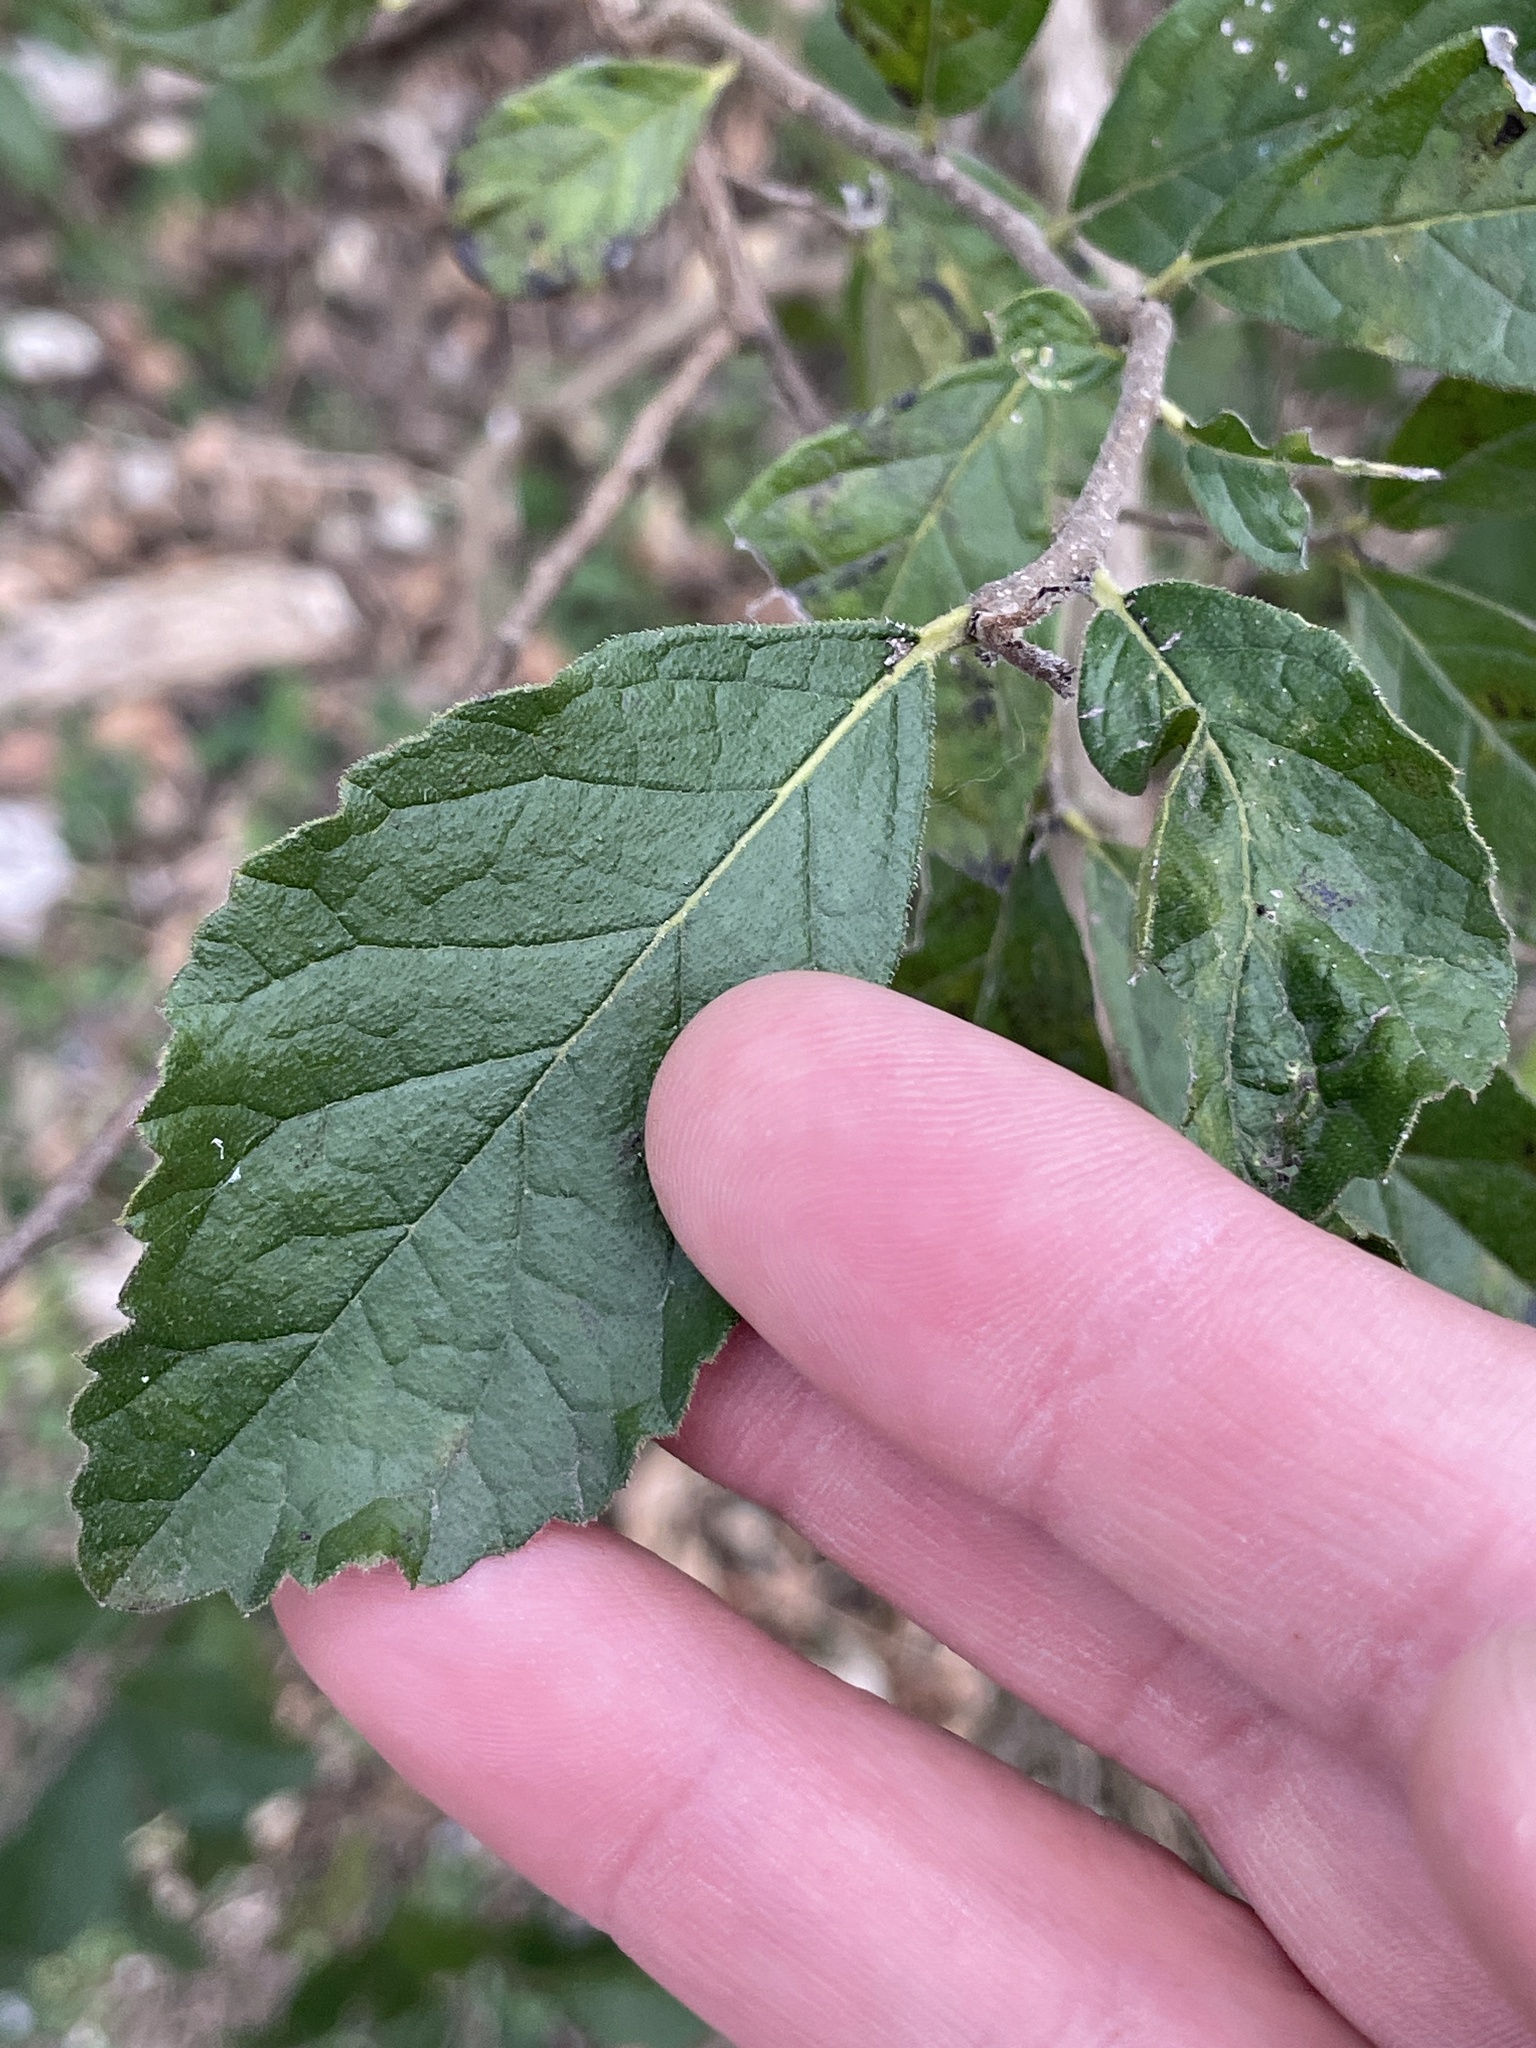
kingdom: Plantae
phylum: Tracheophyta
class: Magnoliopsida
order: Boraginales
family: Ehretiaceae
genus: Ehretia
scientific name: Ehretia anacua
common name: Sugarberry
